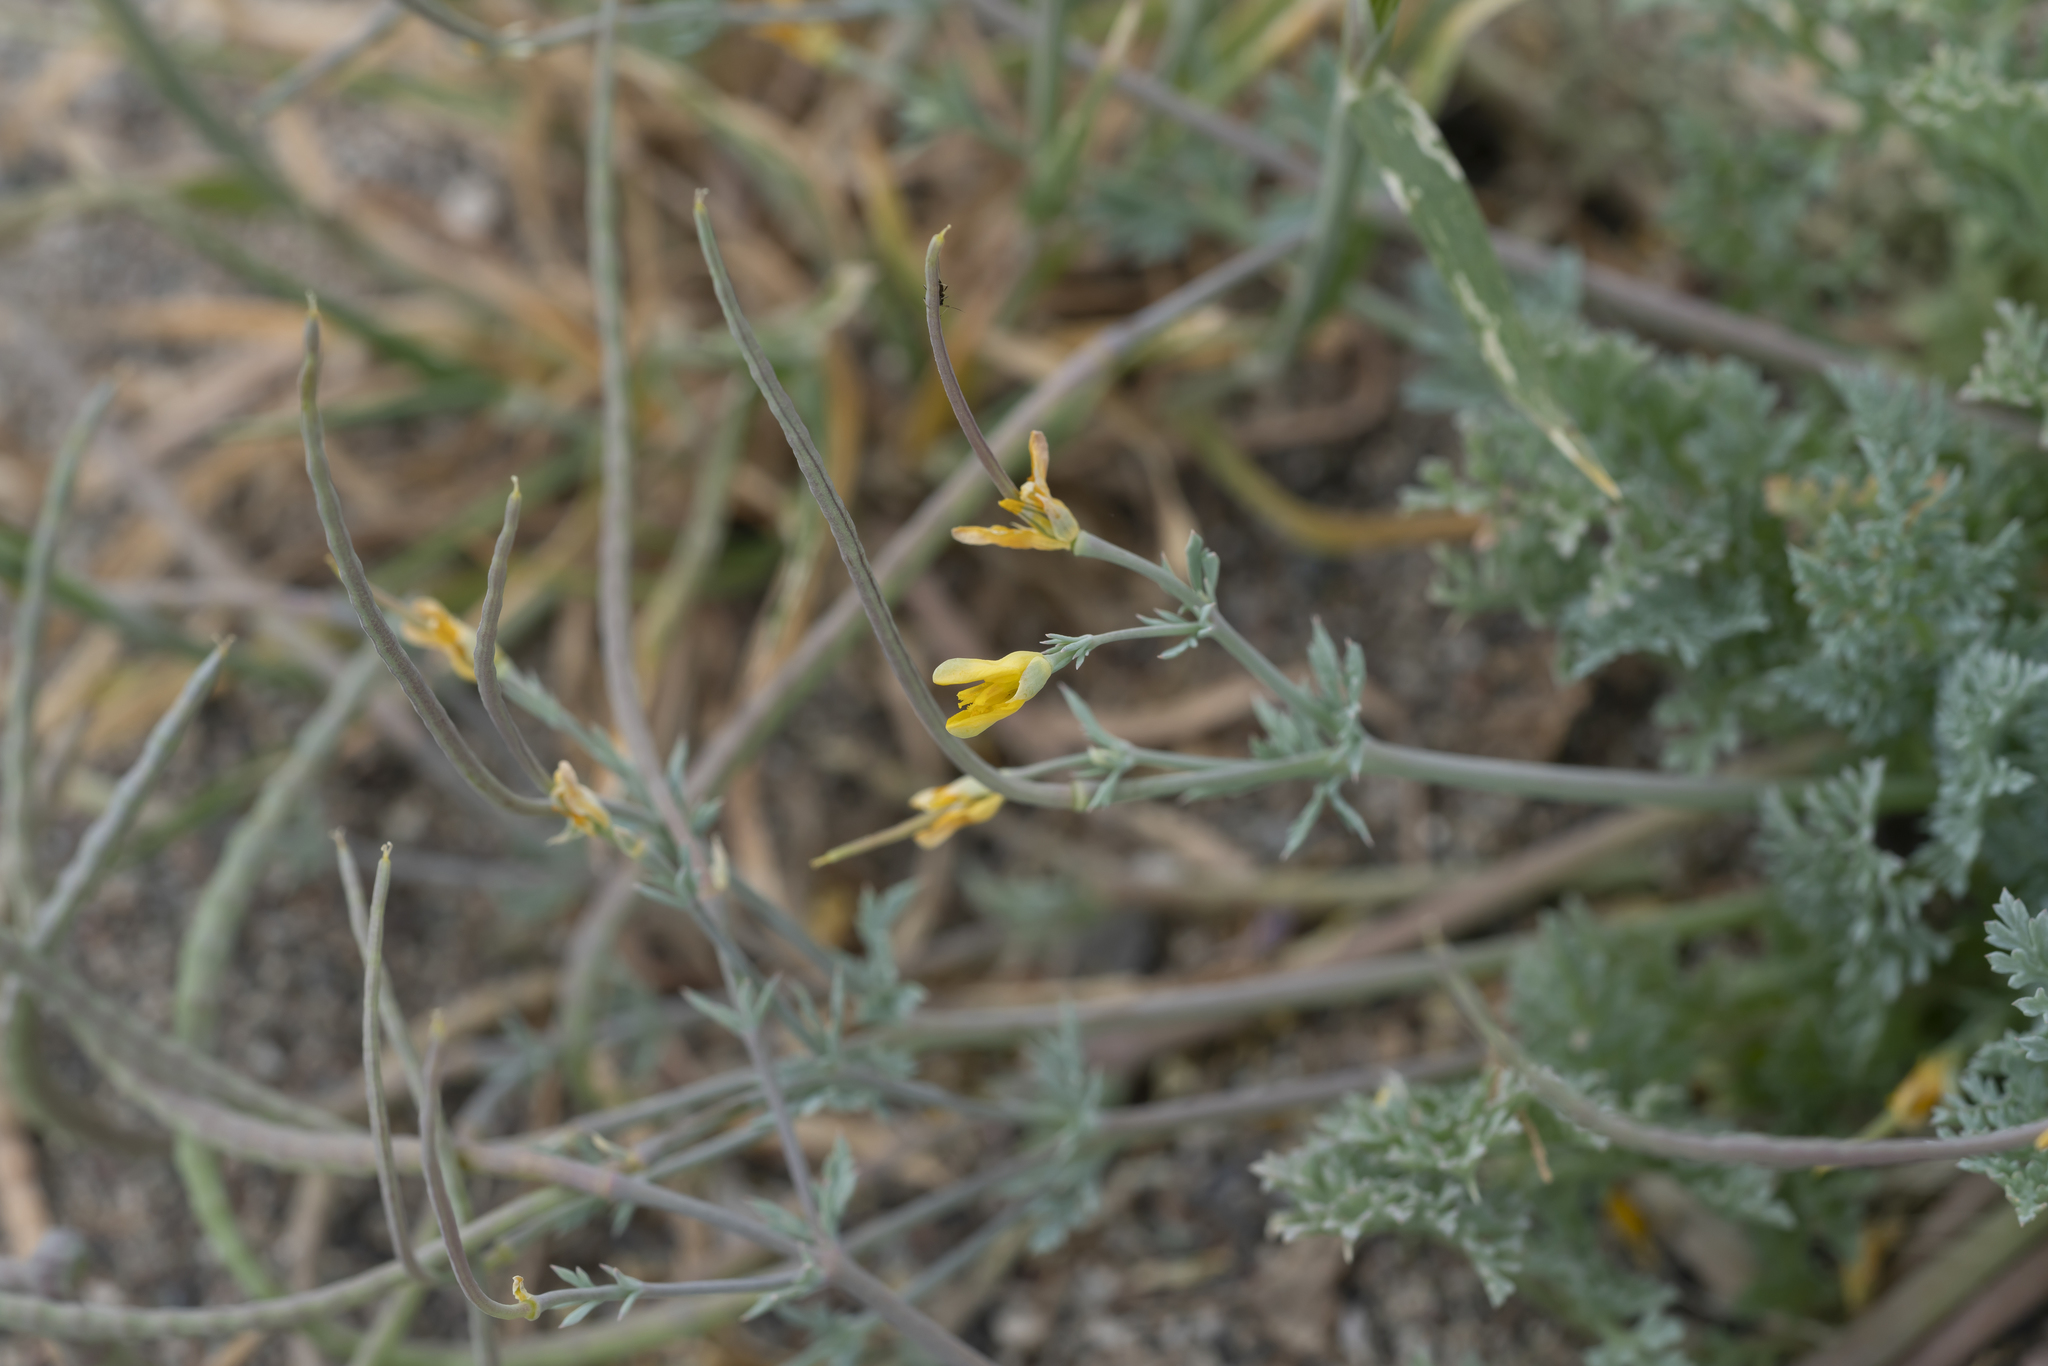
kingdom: Plantae
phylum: Tracheophyta
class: Magnoliopsida
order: Ranunculales
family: Papaveraceae
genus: Hypecoum
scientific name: Hypecoum torulosum
